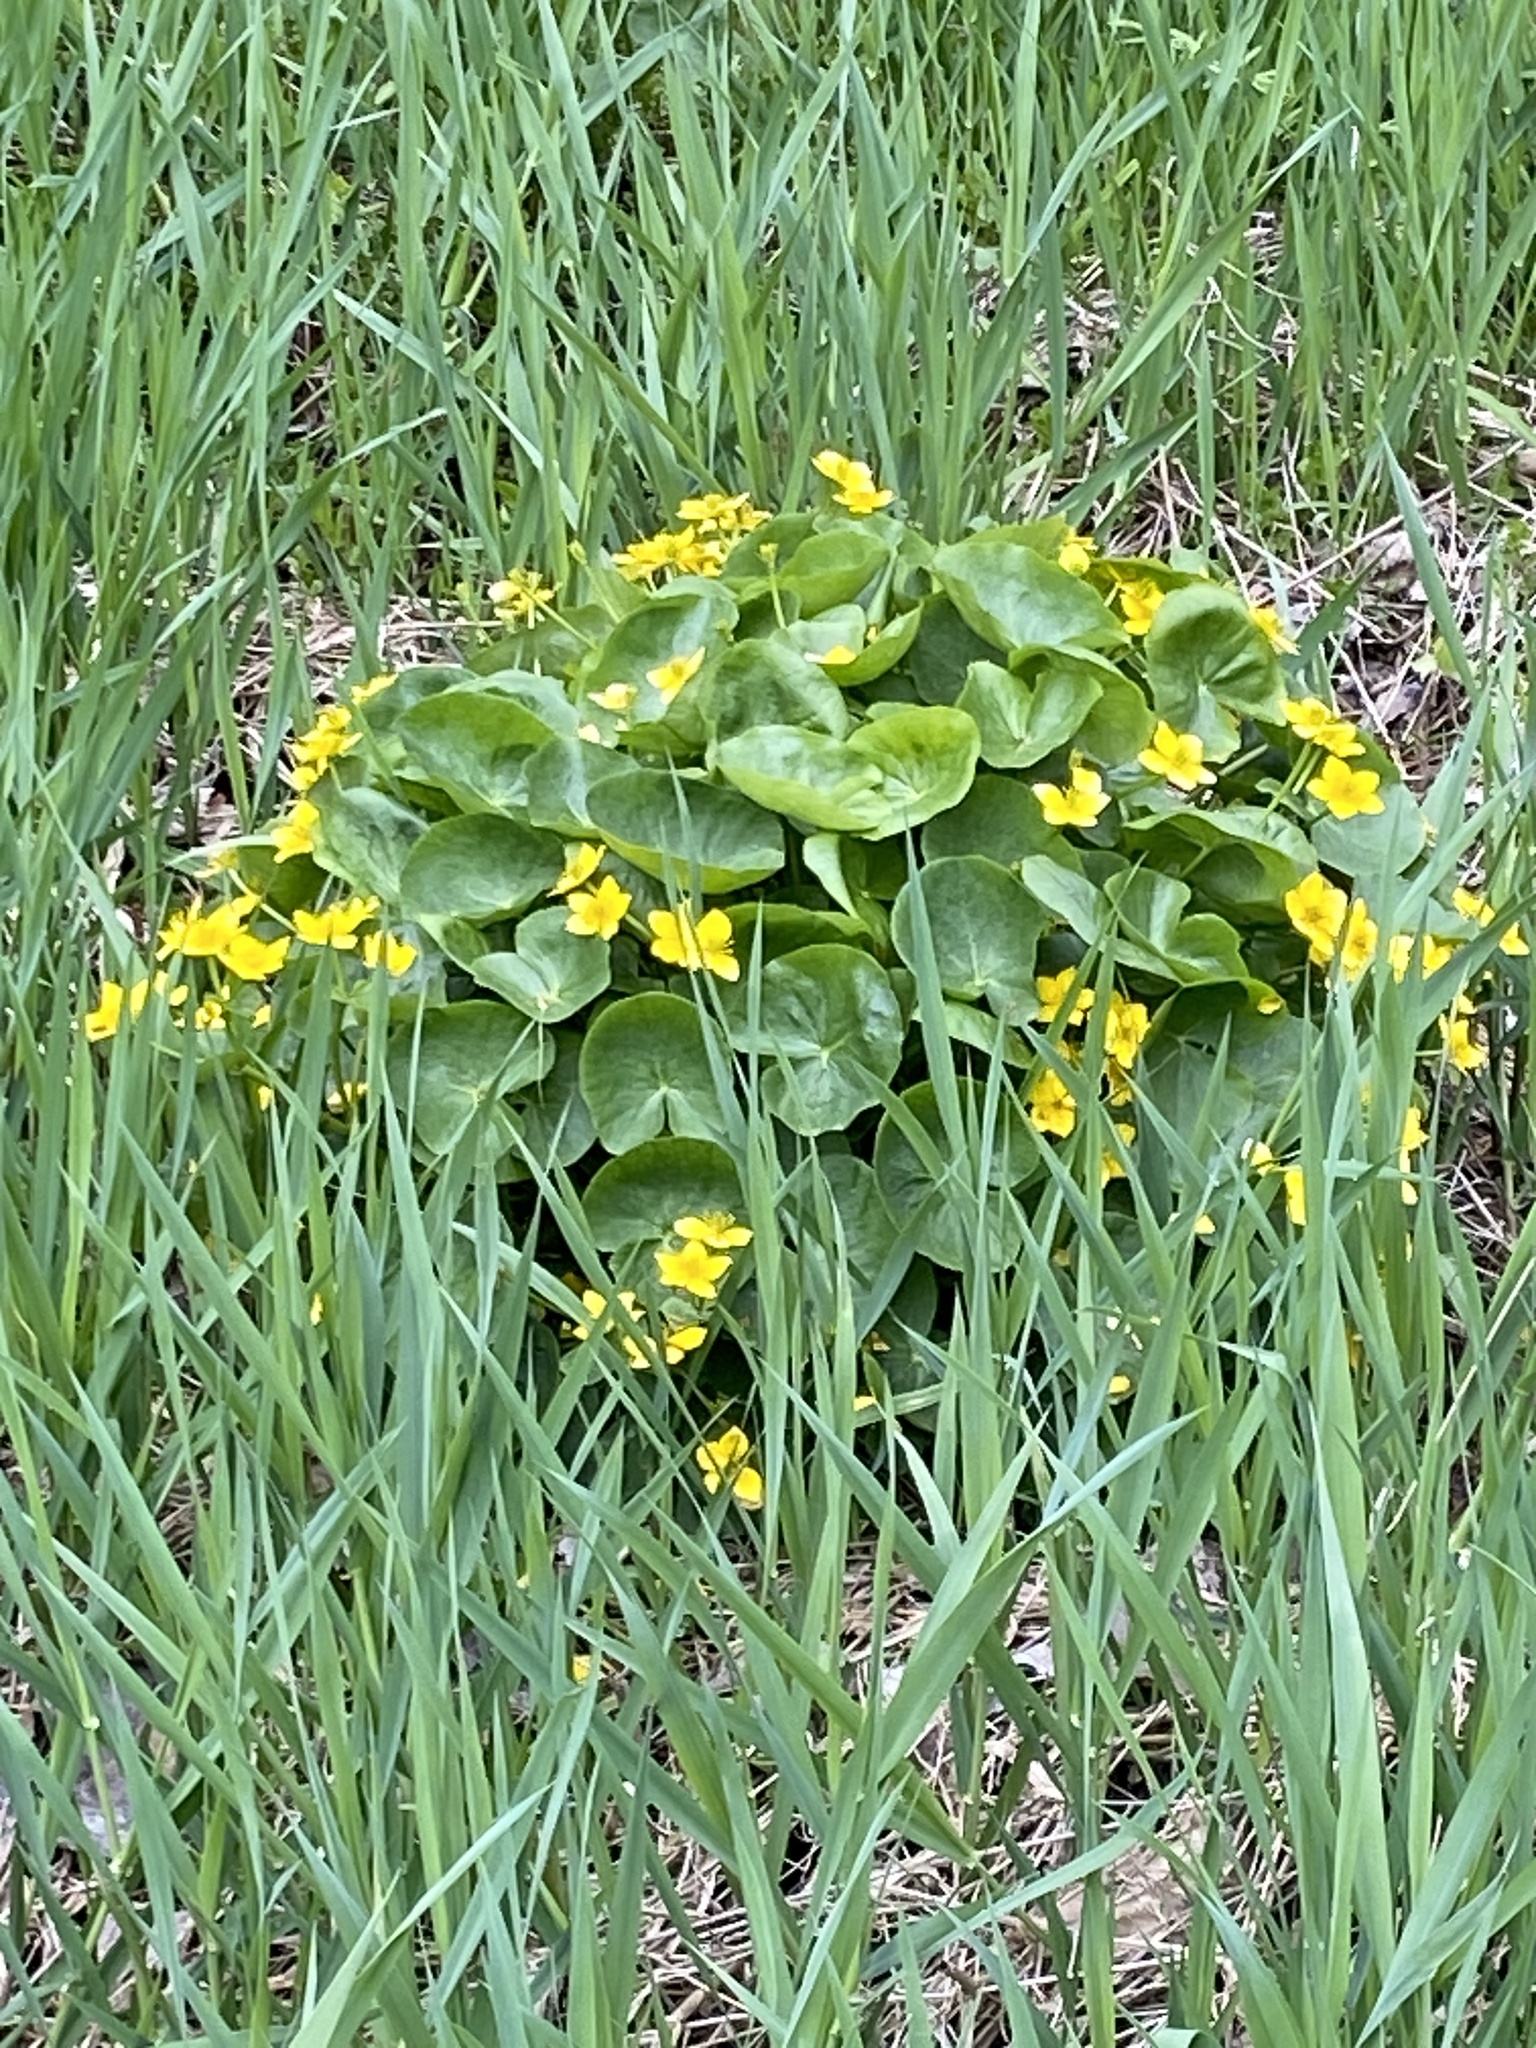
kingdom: Plantae
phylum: Tracheophyta
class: Magnoliopsida
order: Ranunculales
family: Ranunculaceae
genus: Caltha
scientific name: Caltha palustris
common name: Marsh marigold
